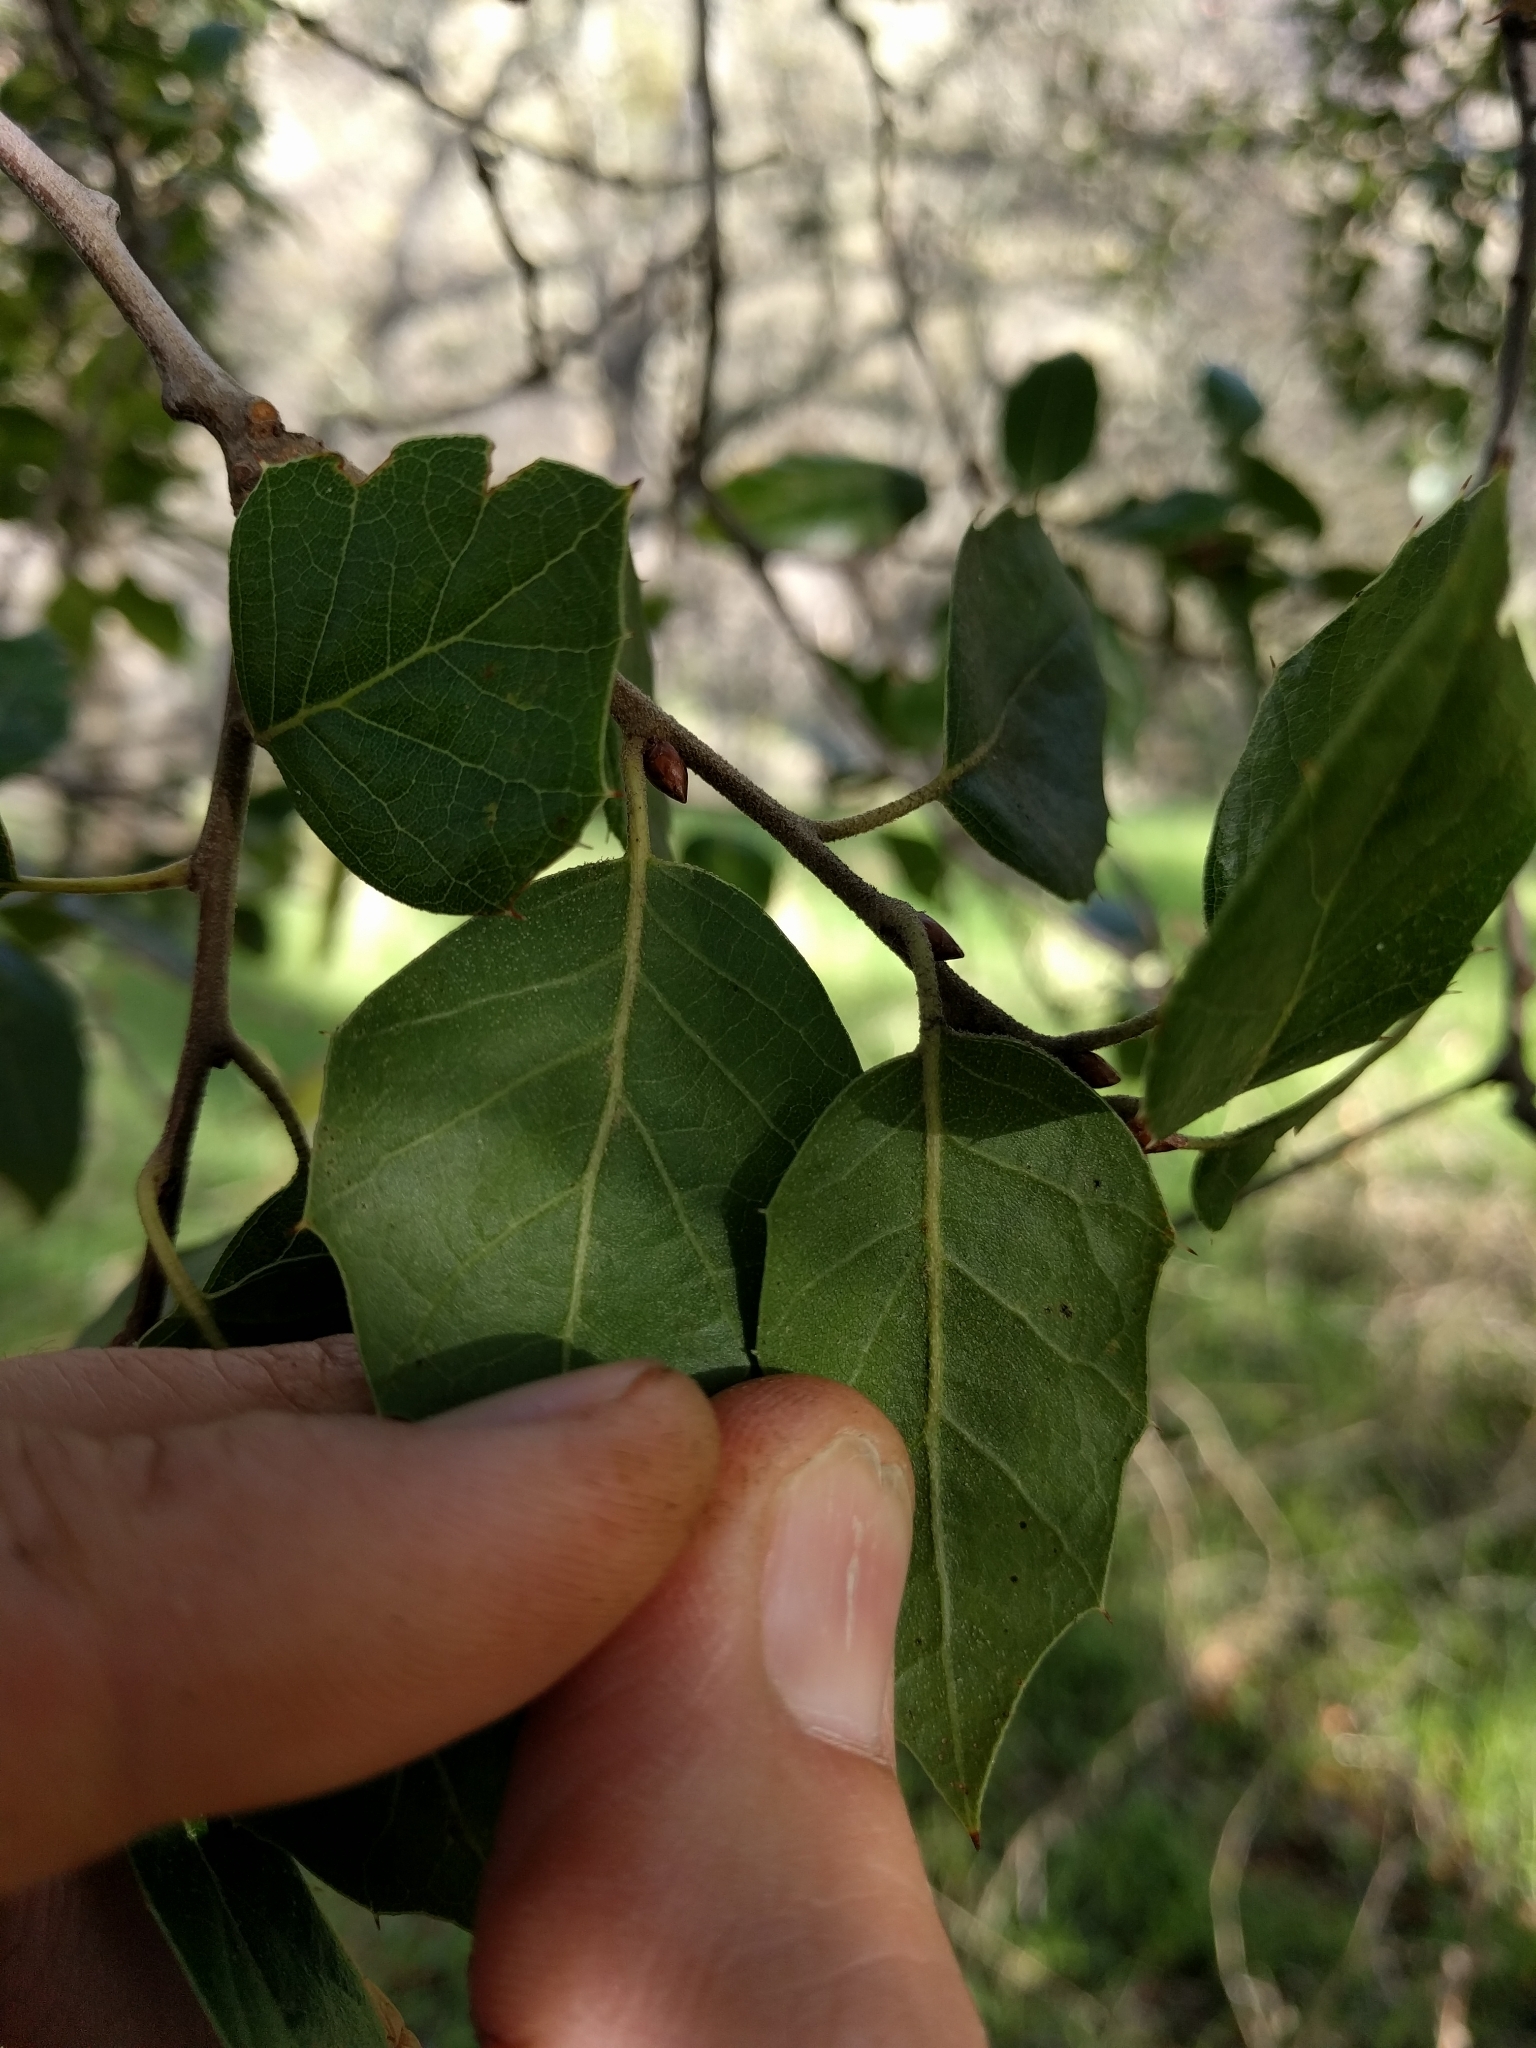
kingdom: Plantae
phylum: Tracheophyta
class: Magnoliopsida
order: Fagales
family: Fagaceae
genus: Quercus
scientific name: Quercus agrifolia
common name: California live oak
